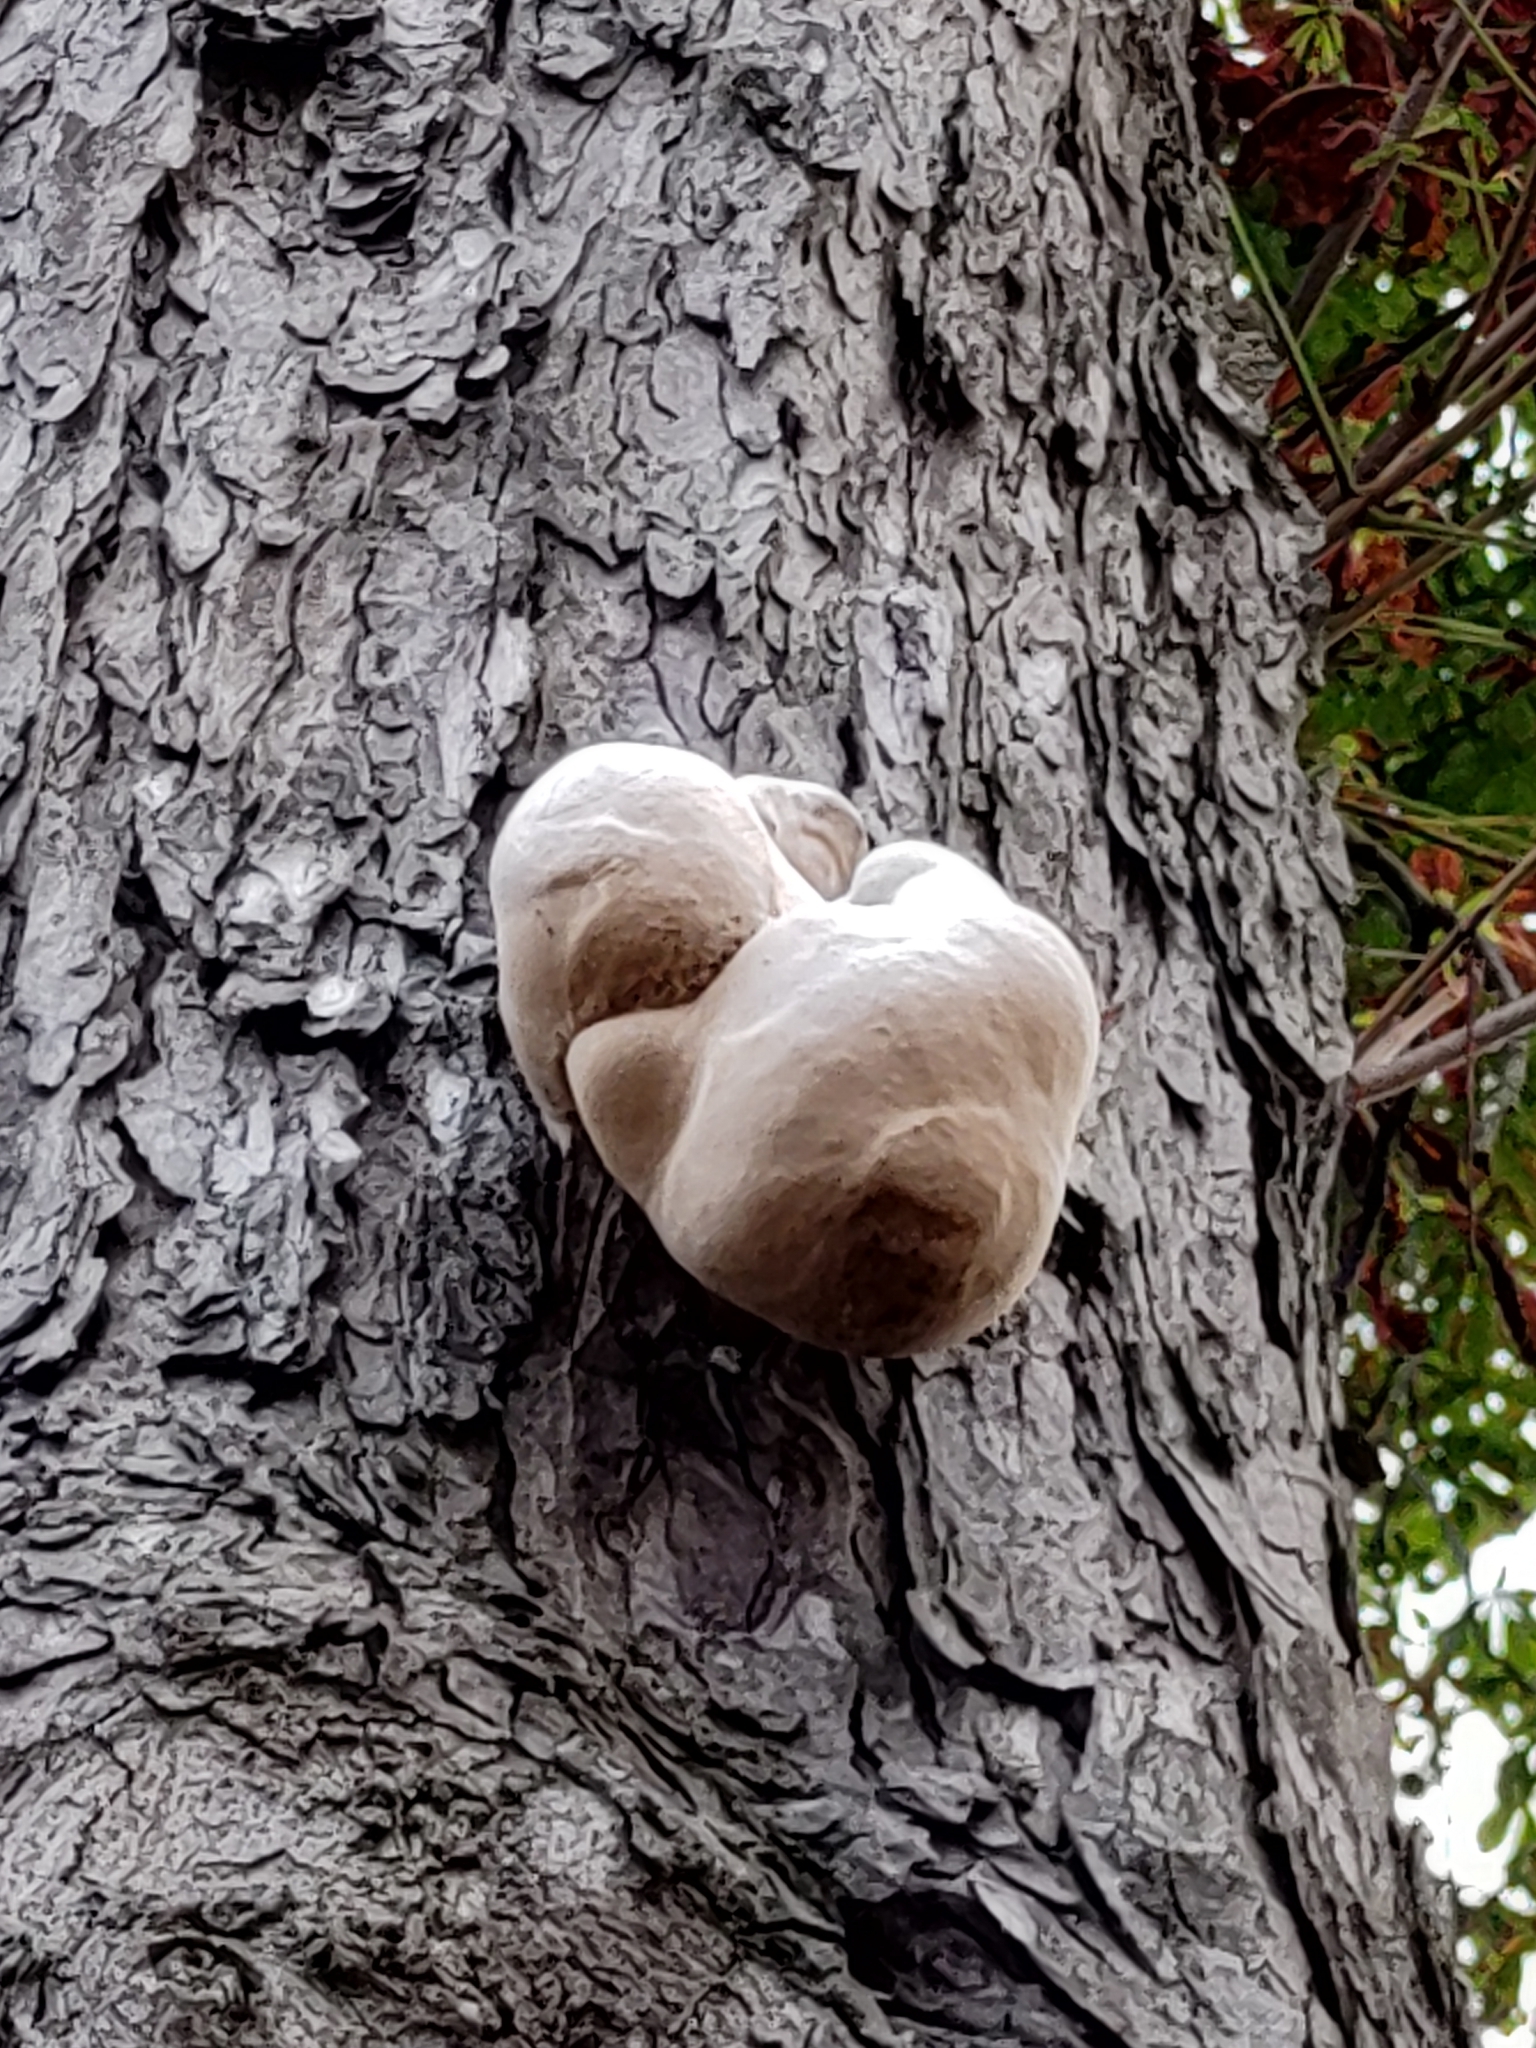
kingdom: Fungi
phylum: Basidiomycota
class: Agaricomycetes
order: Polyporales
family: Polyporaceae
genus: Fomes
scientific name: Fomes fomentarius
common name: Hoof fungus
